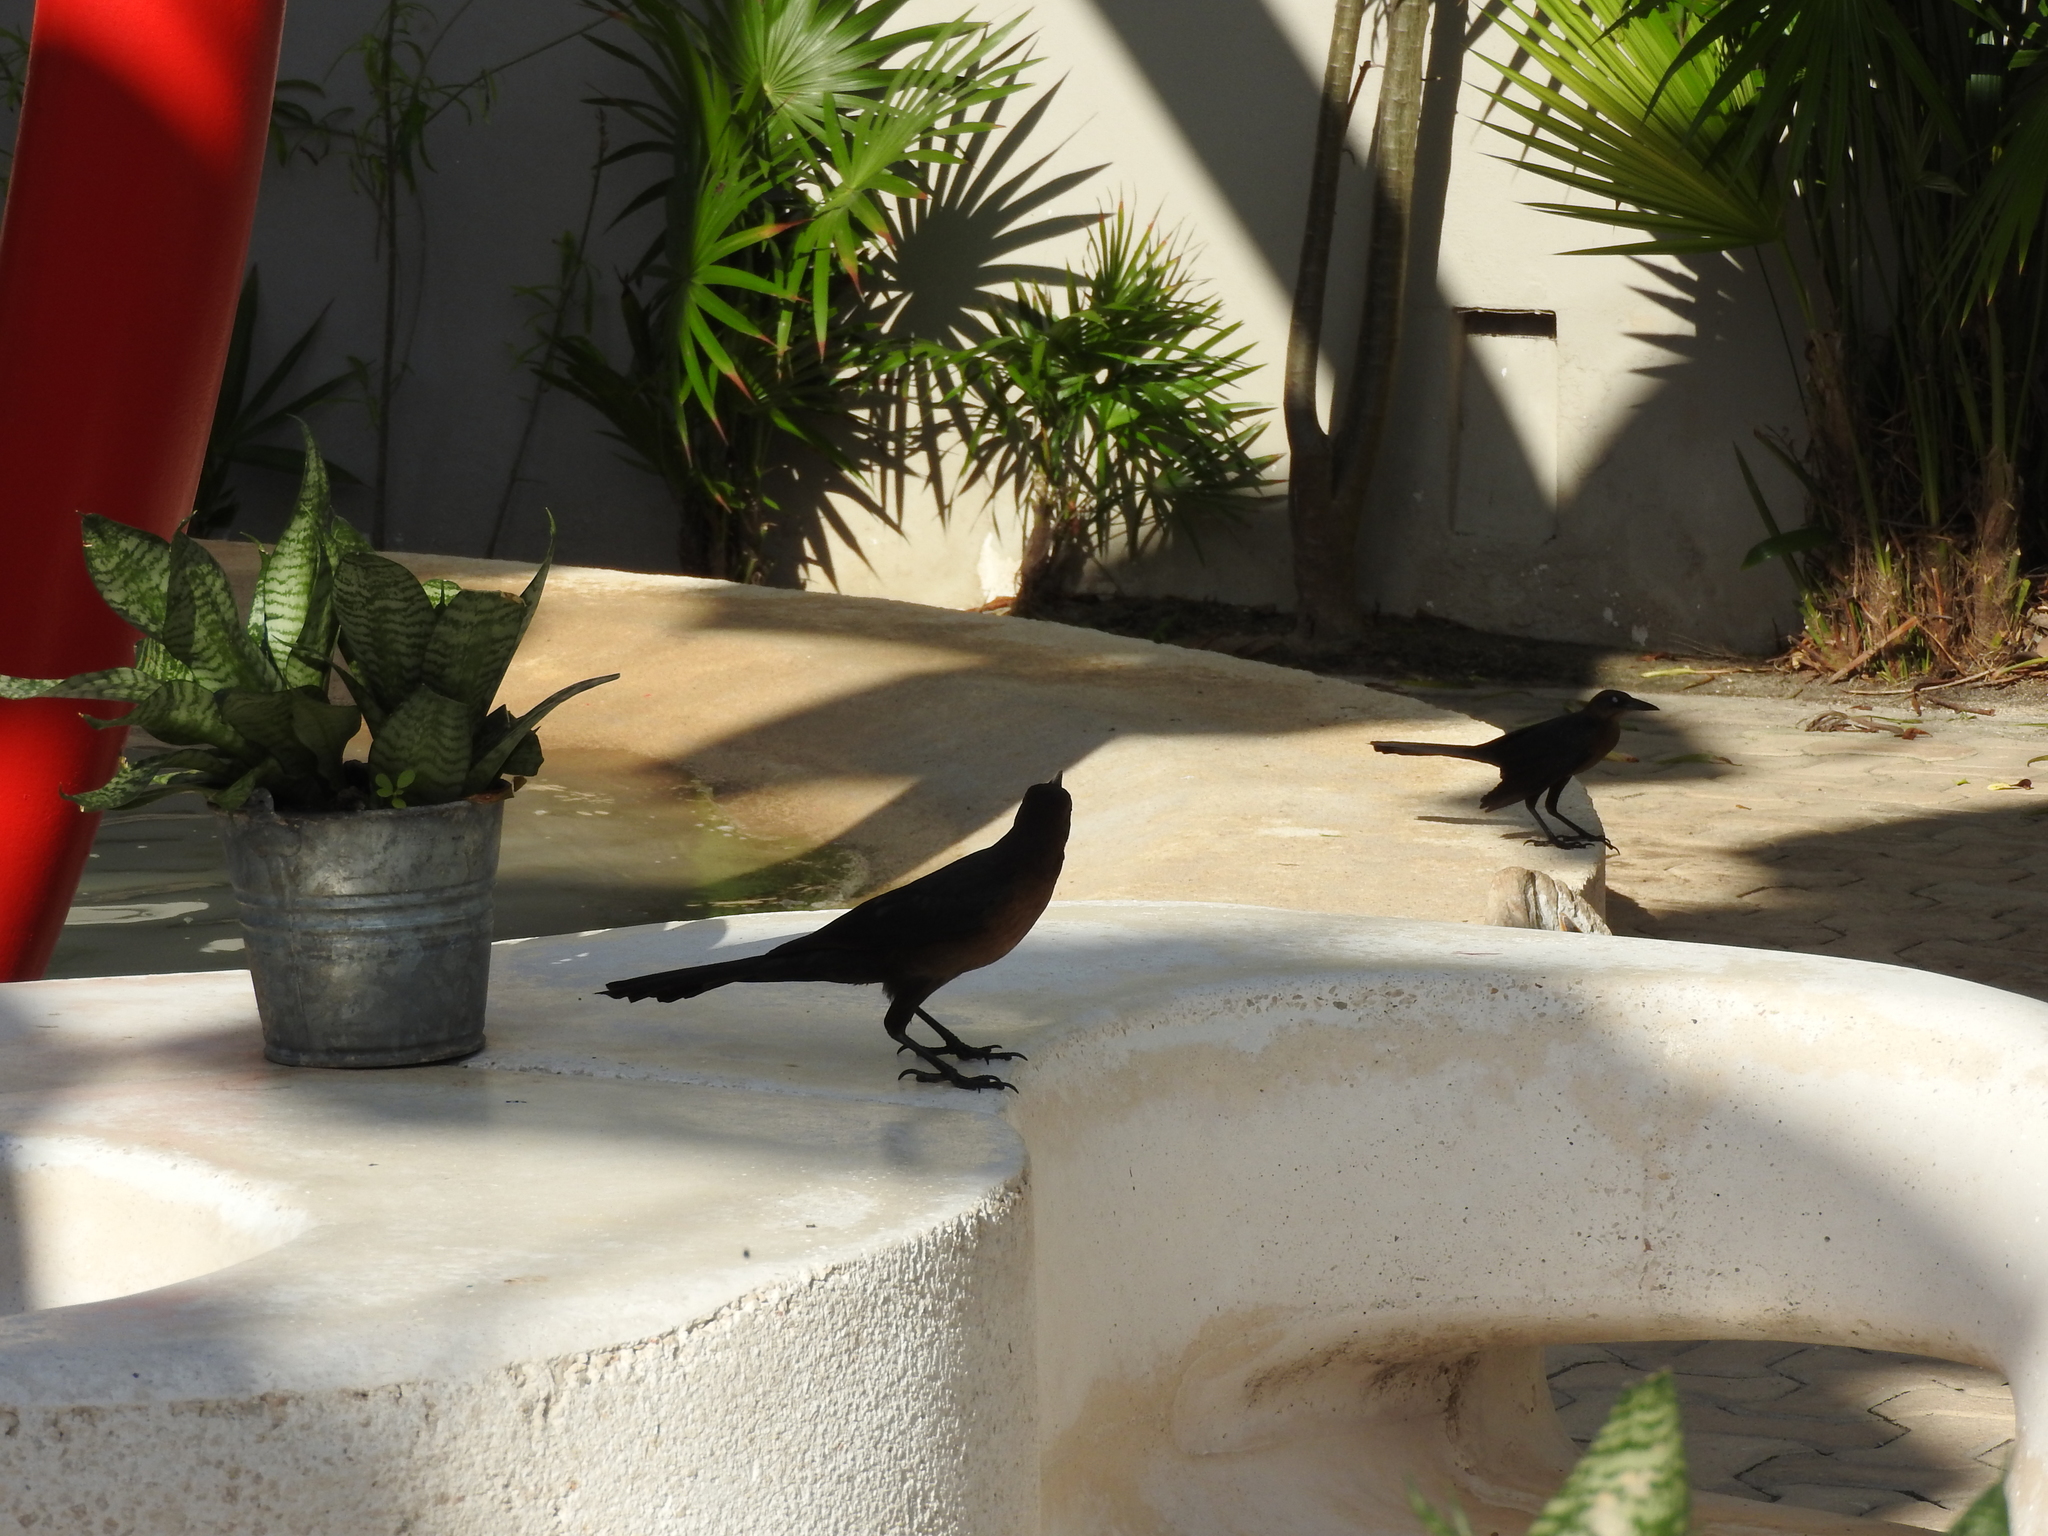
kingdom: Animalia
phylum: Chordata
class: Aves
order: Passeriformes
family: Icteridae
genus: Quiscalus
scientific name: Quiscalus mexicanus
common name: Great-tailed grackle
